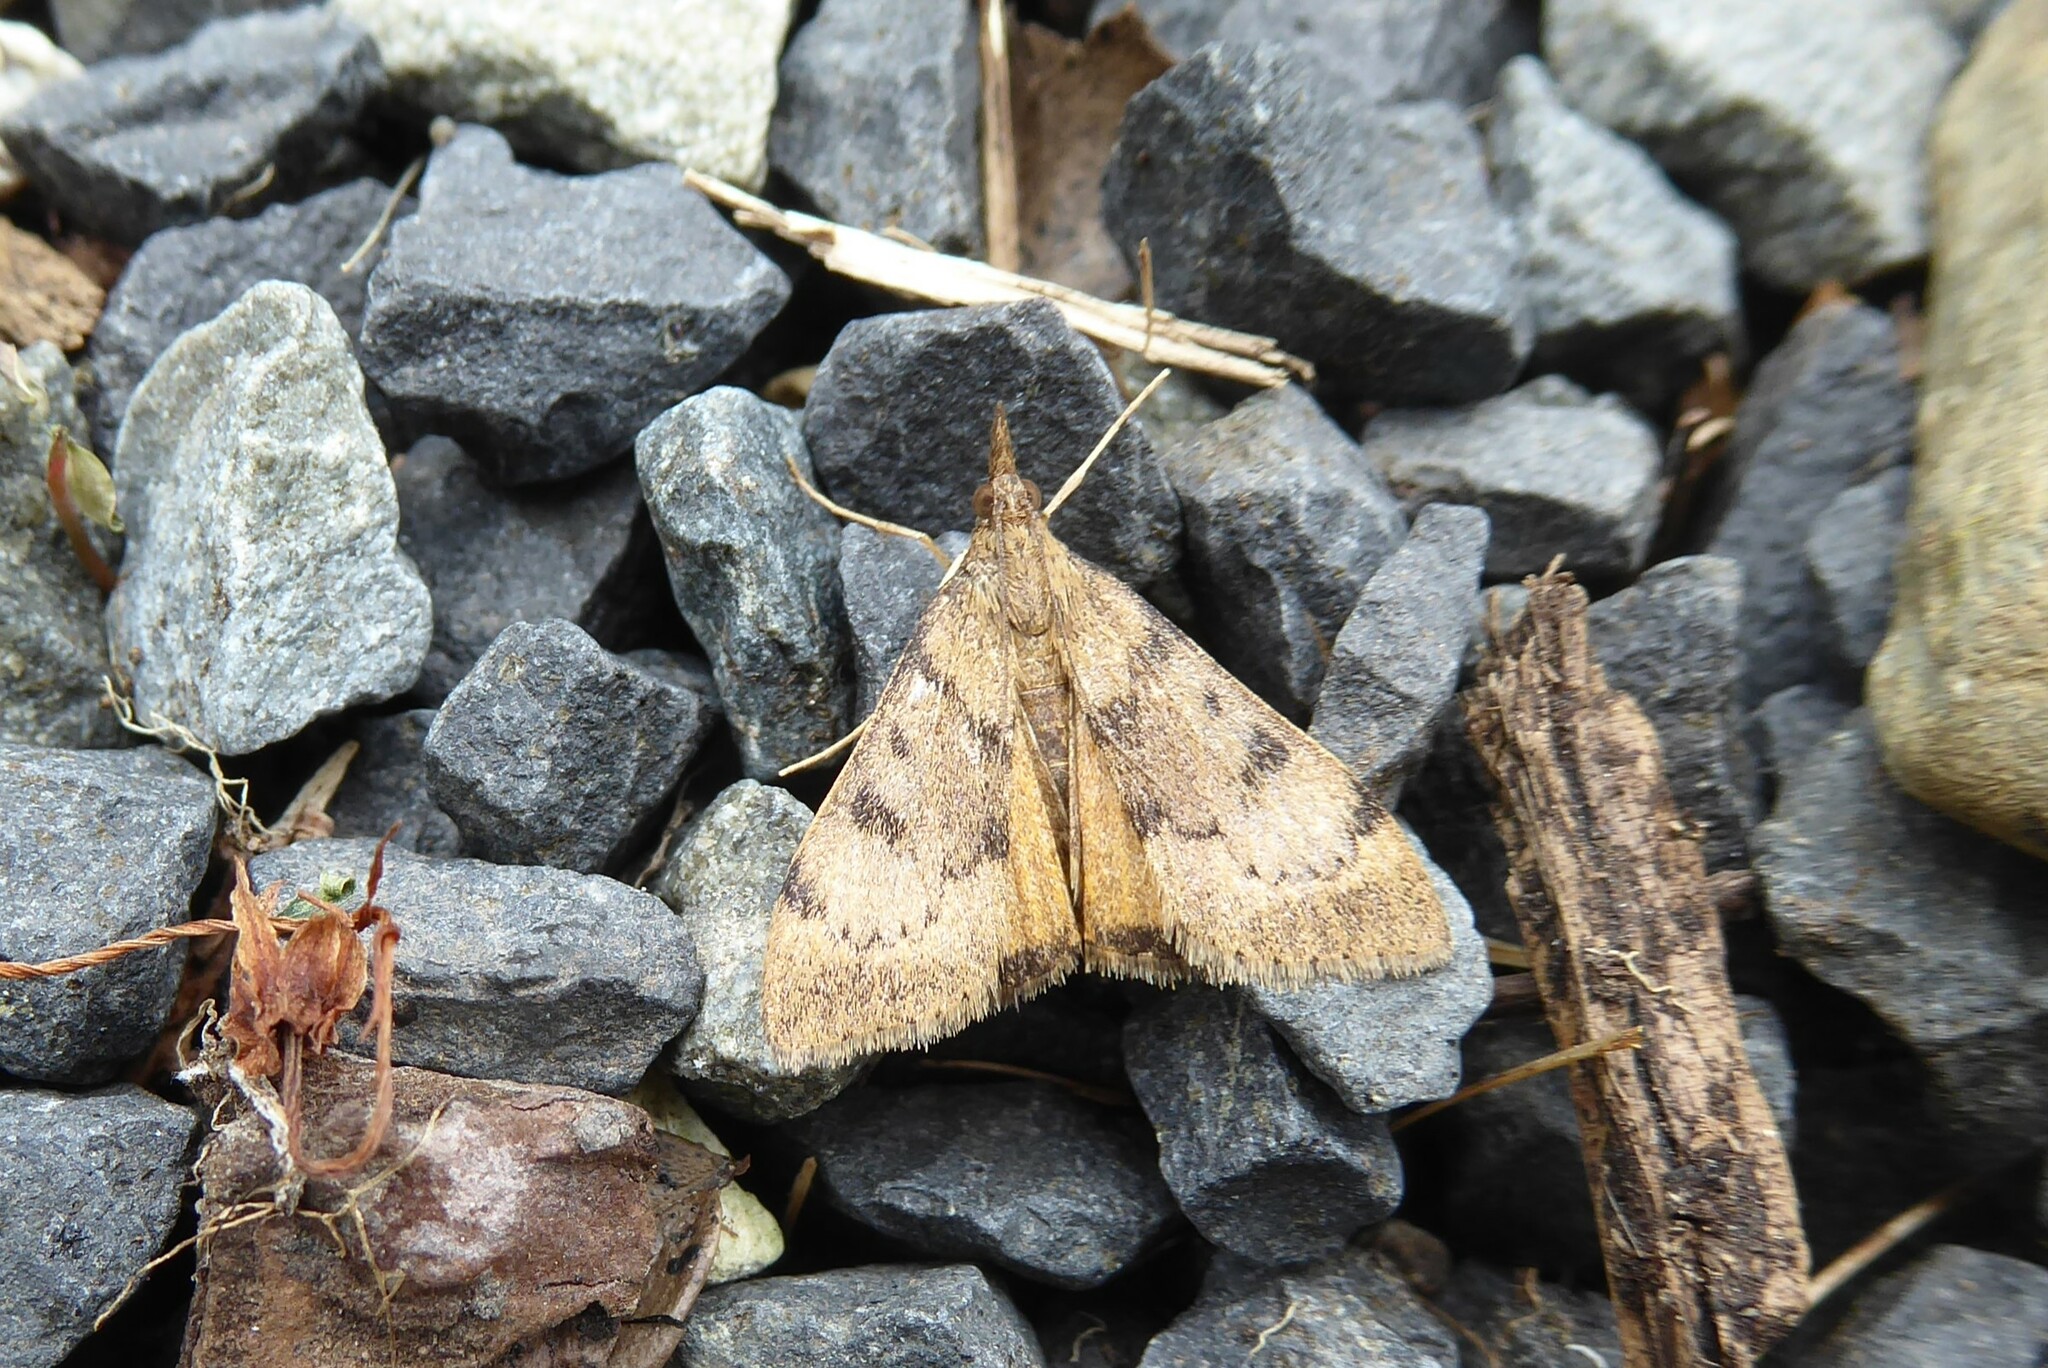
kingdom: Animalia
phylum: Arthropoda
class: Insecta
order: Lepidoptera
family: Crambidae
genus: Uresiphita
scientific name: Uresiphita
